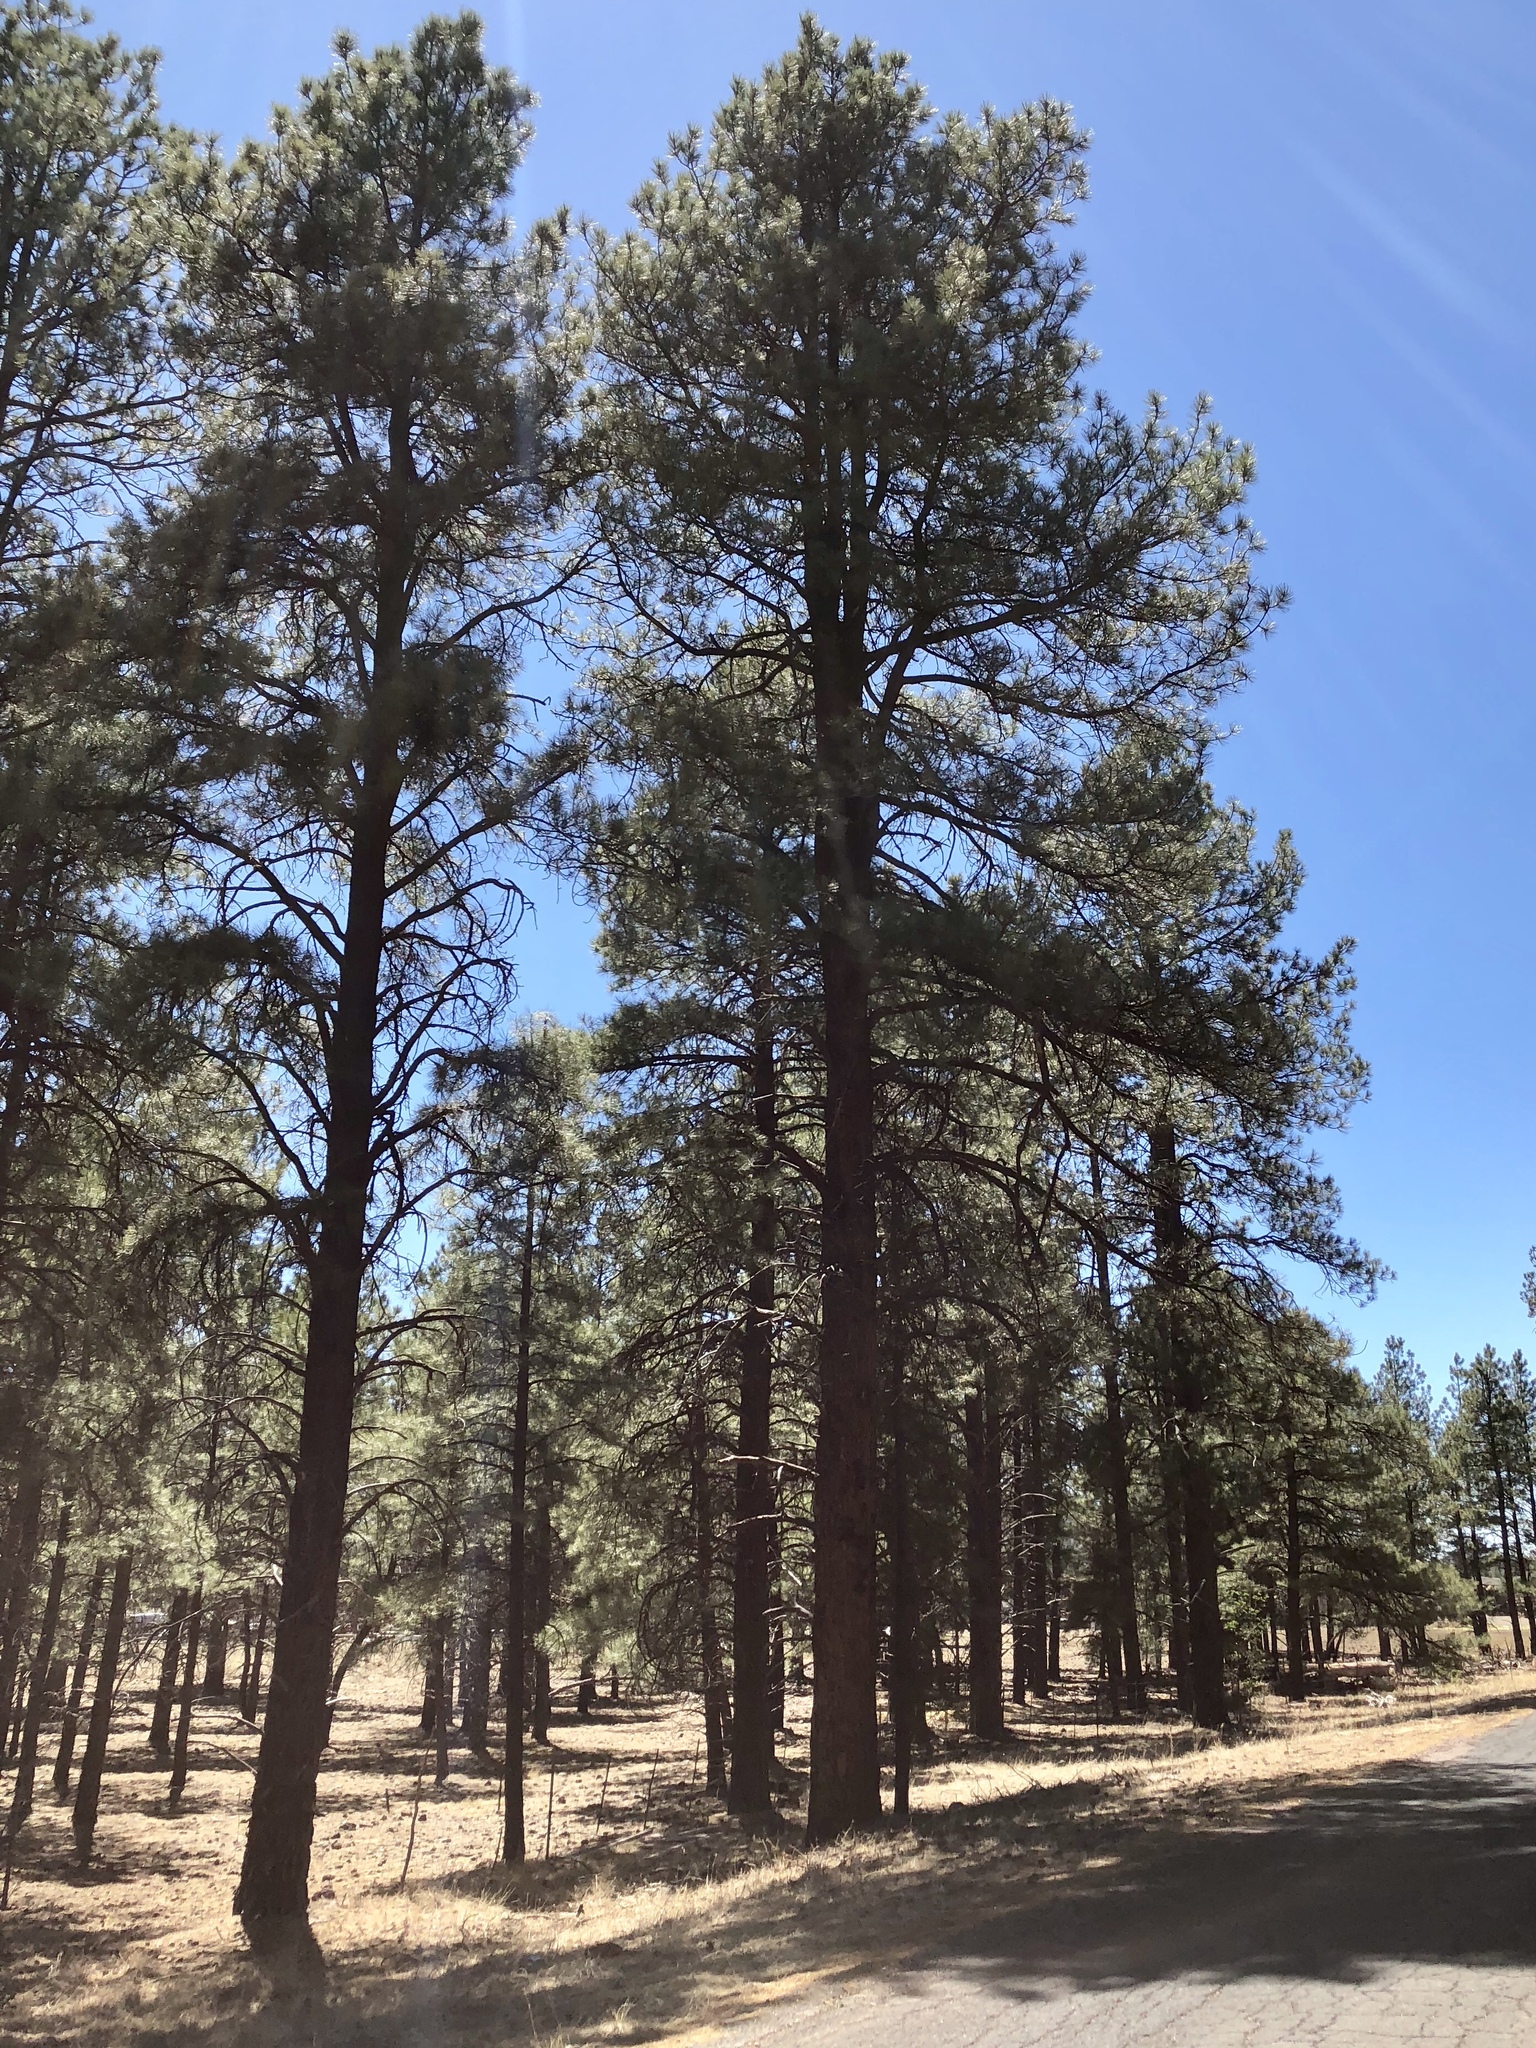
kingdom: Plantae
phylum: Tracheophyta
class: Pinopsida
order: Pinales
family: Pinaceae
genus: Pinus
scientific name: Pinus ponderosa
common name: Western yellow-pine
